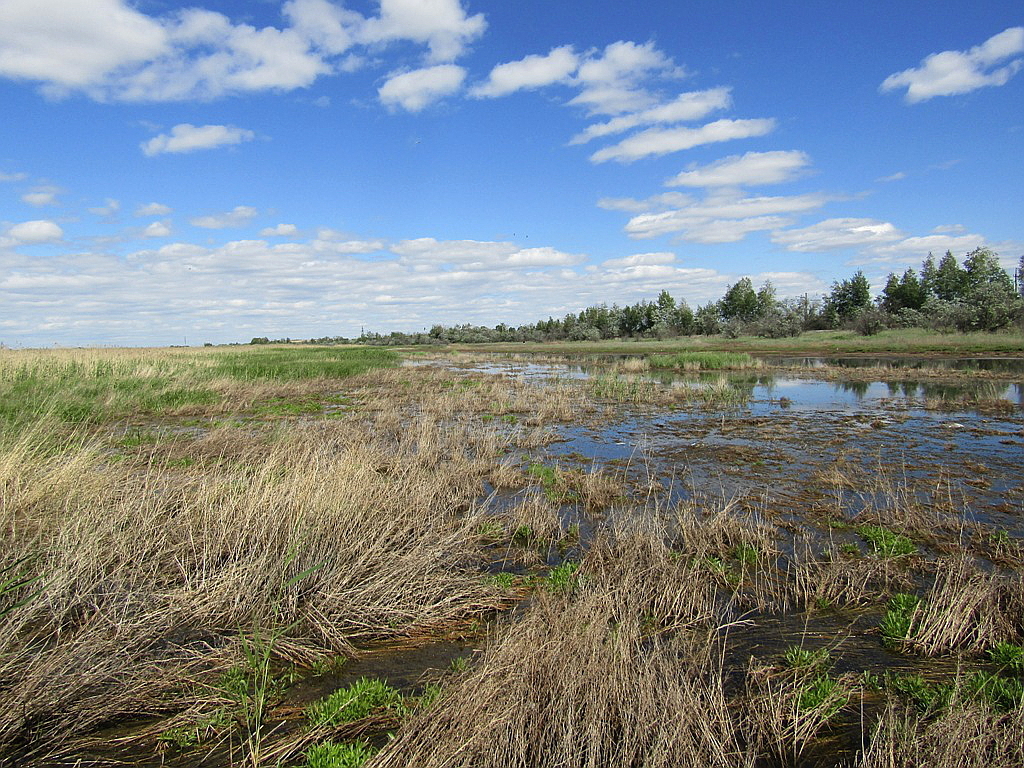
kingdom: Animalia
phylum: Chordata
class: Aves
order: Gruiformes
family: Rallidae
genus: Rallus
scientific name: Rallus aquaticus
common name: Water rail
